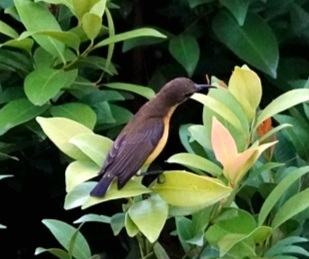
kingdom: Animalia
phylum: Chordata
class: Aves
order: Passeriformes
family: Nectariniidae
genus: Cinnyris
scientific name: Cinnyris
